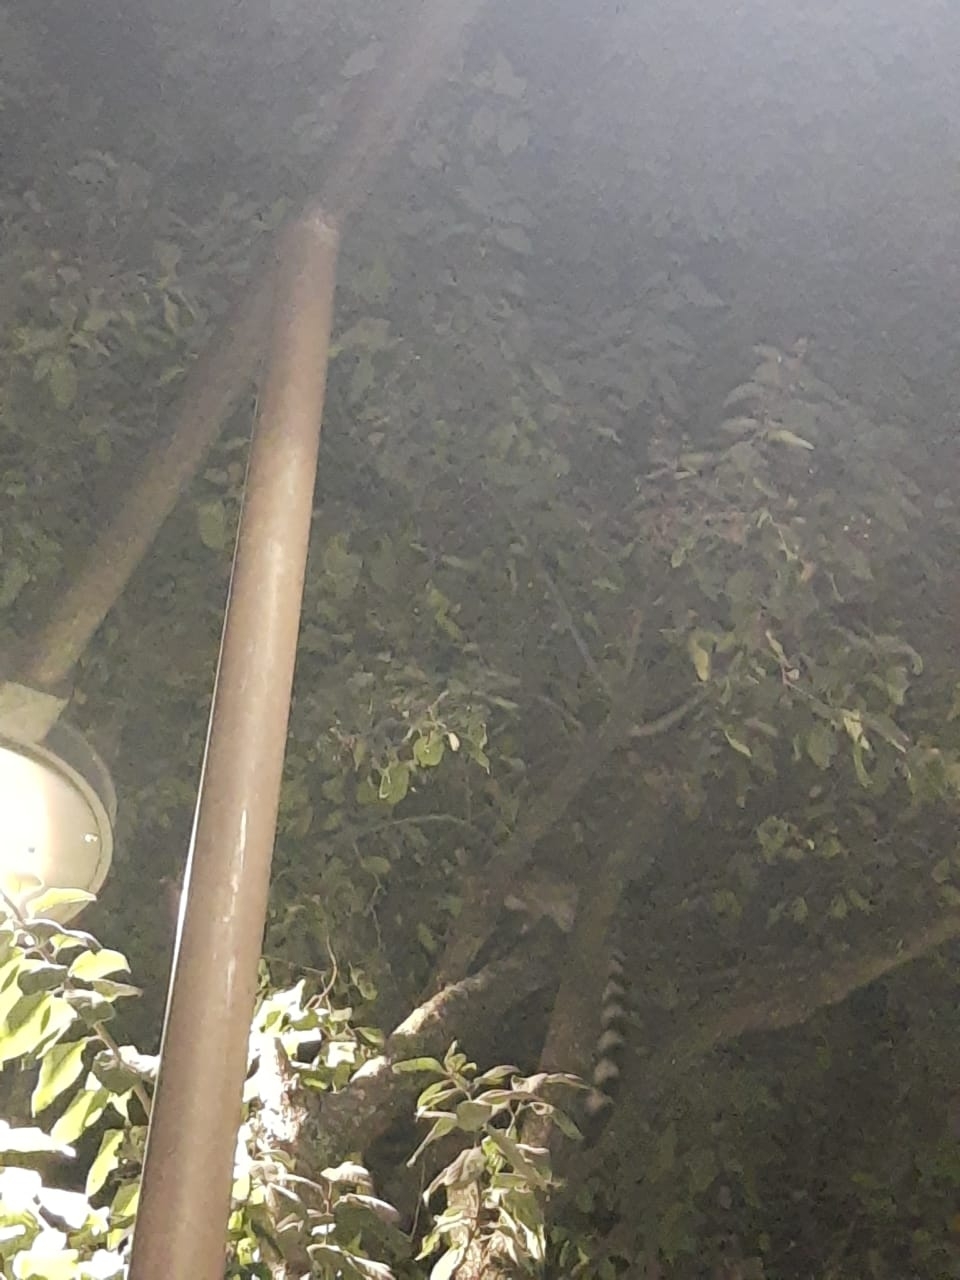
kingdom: Animalia
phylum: Chordata
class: Mammalia
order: Carnivora
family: Procyonidae
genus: Bassariscus
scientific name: Bassariscus astutus
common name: Ringtail
